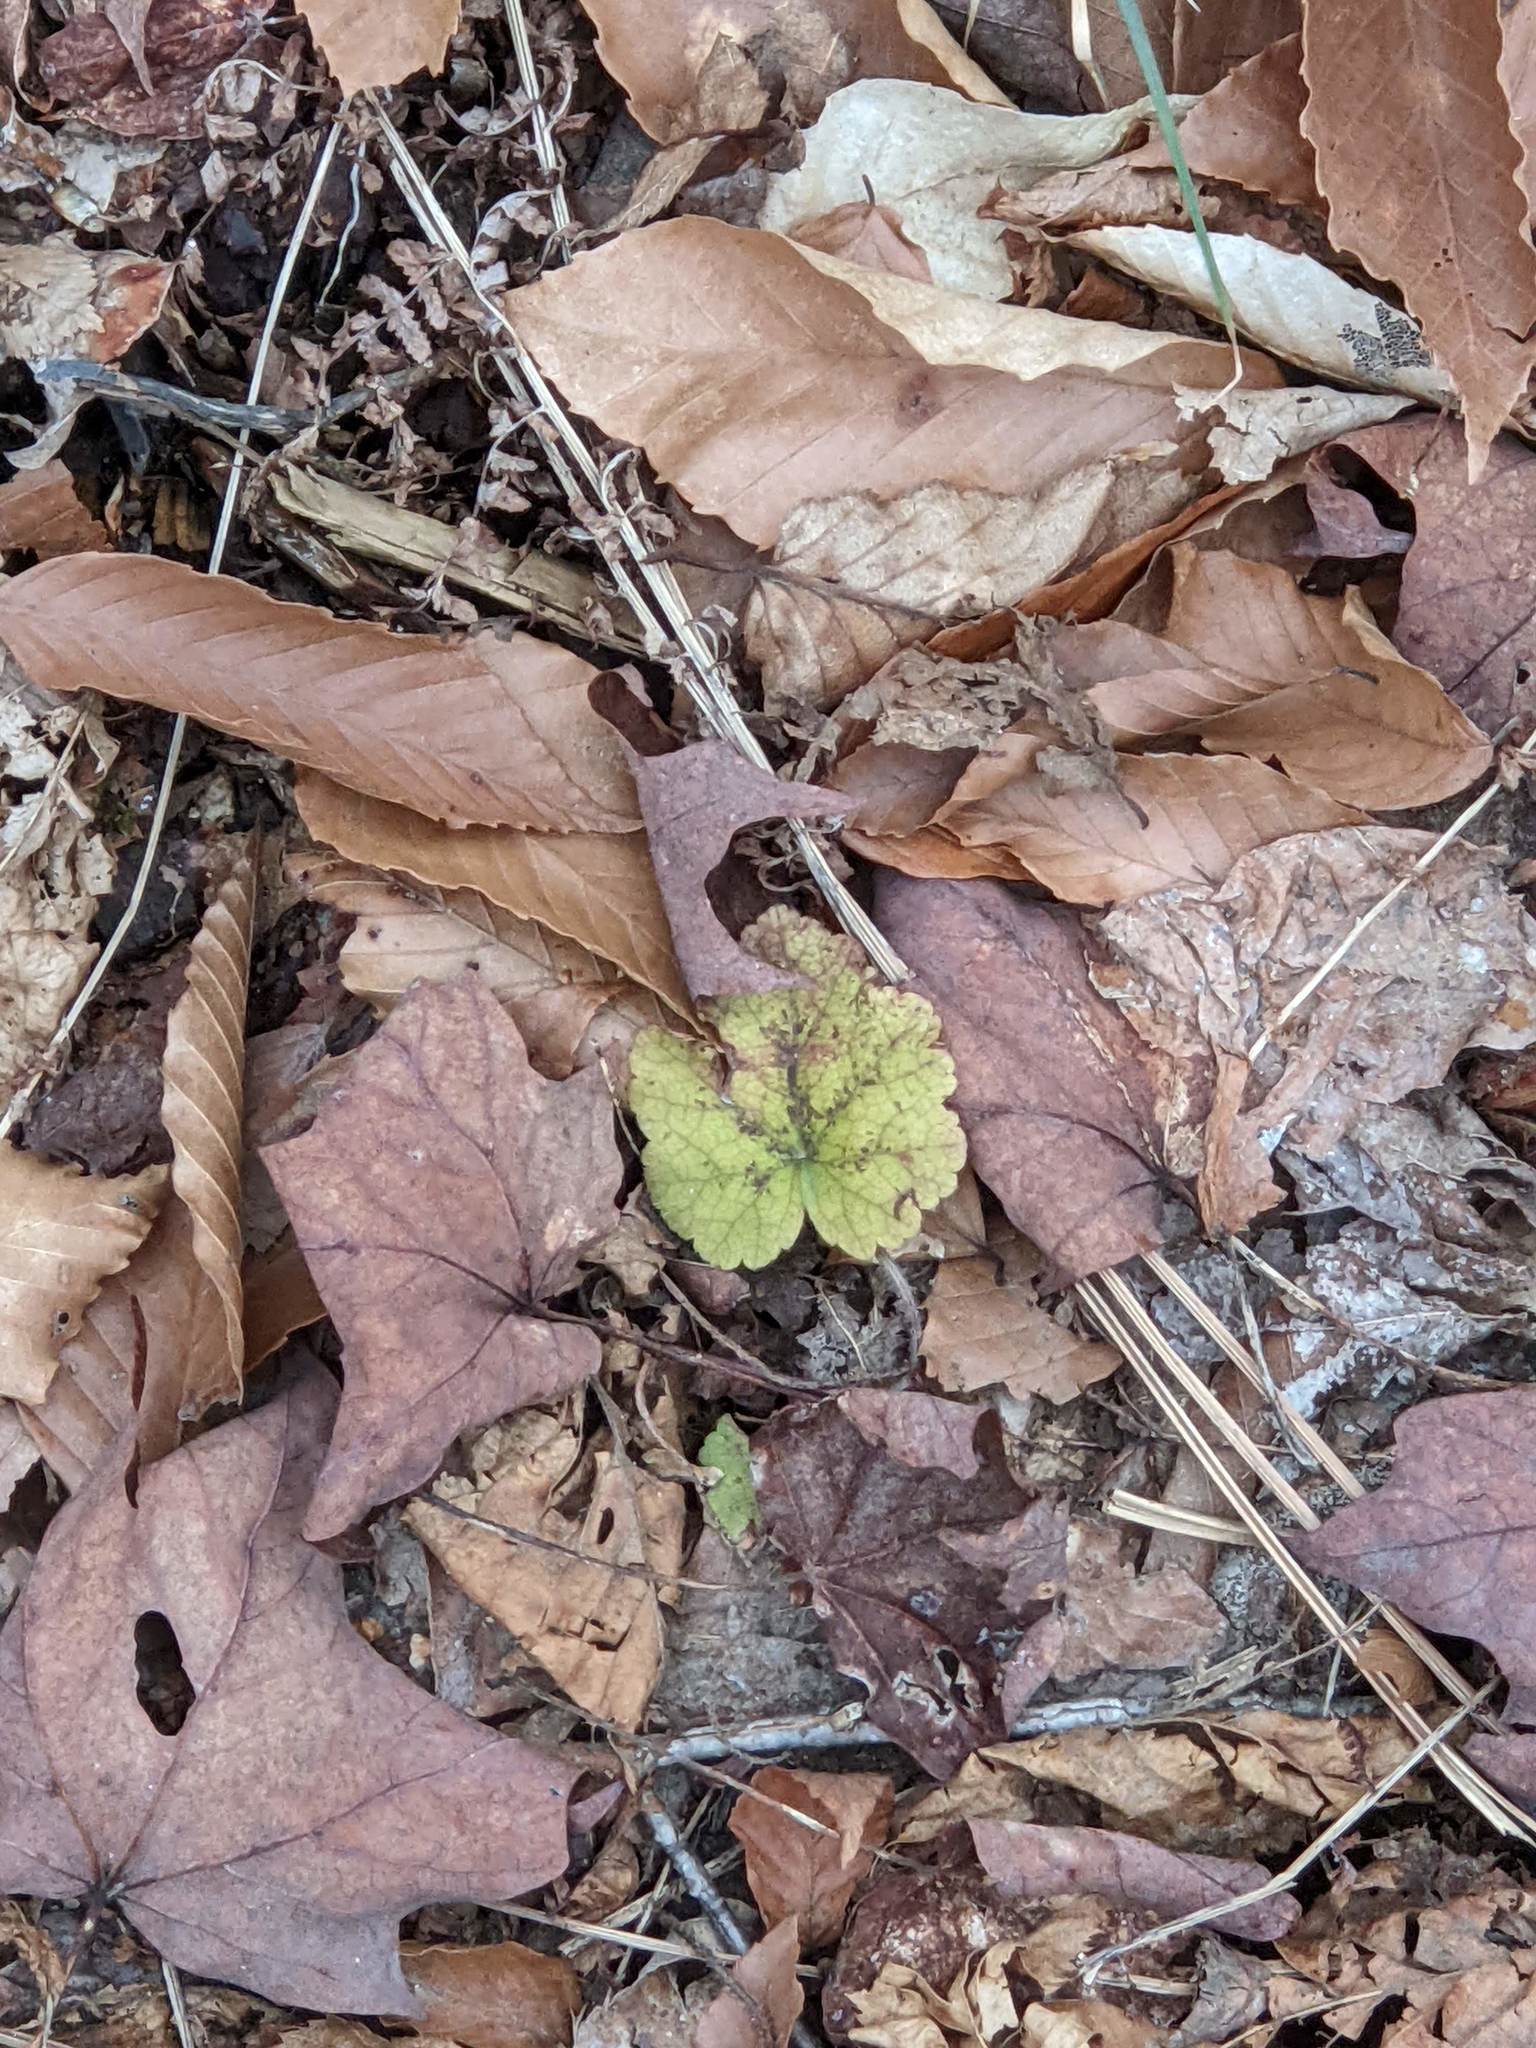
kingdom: Plantae
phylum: Tracheophyta
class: Magnoliopsida
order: Saxifragales
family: Saxifragaceae
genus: Tiarella
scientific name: Tiarella stolonifera
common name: Stoloniferous foamflower
